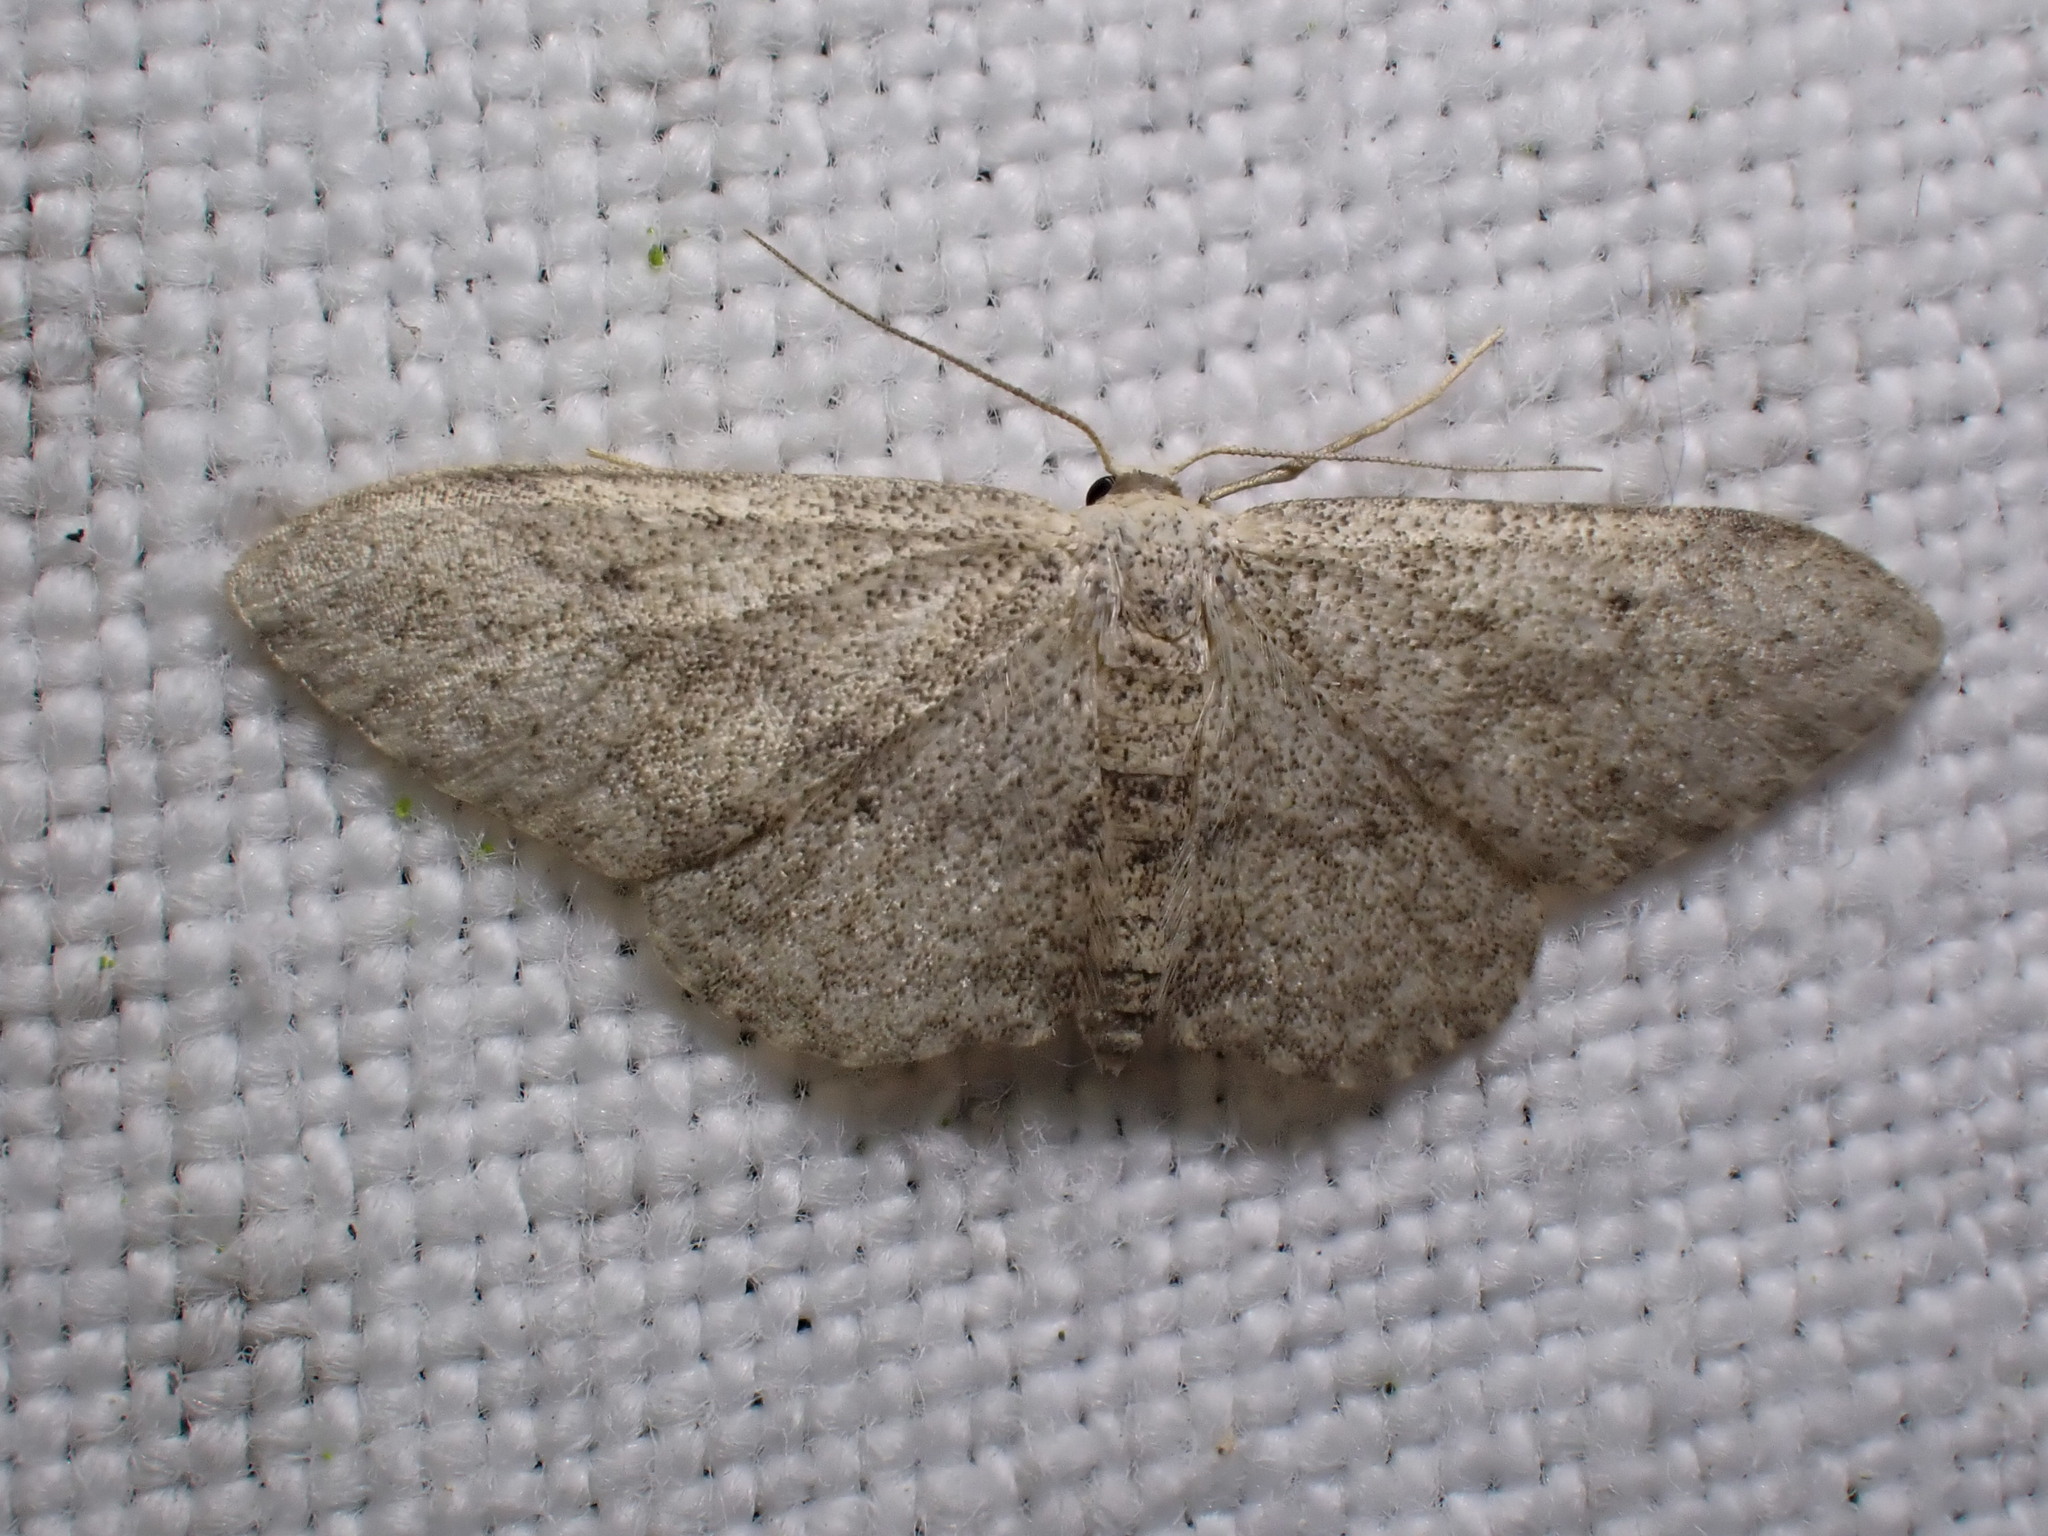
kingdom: Animalia
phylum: Arthropoda
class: Insecta
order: Lepidoptera
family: Geometridae
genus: Idaea
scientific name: Idaea seriata
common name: Small dusty wave
